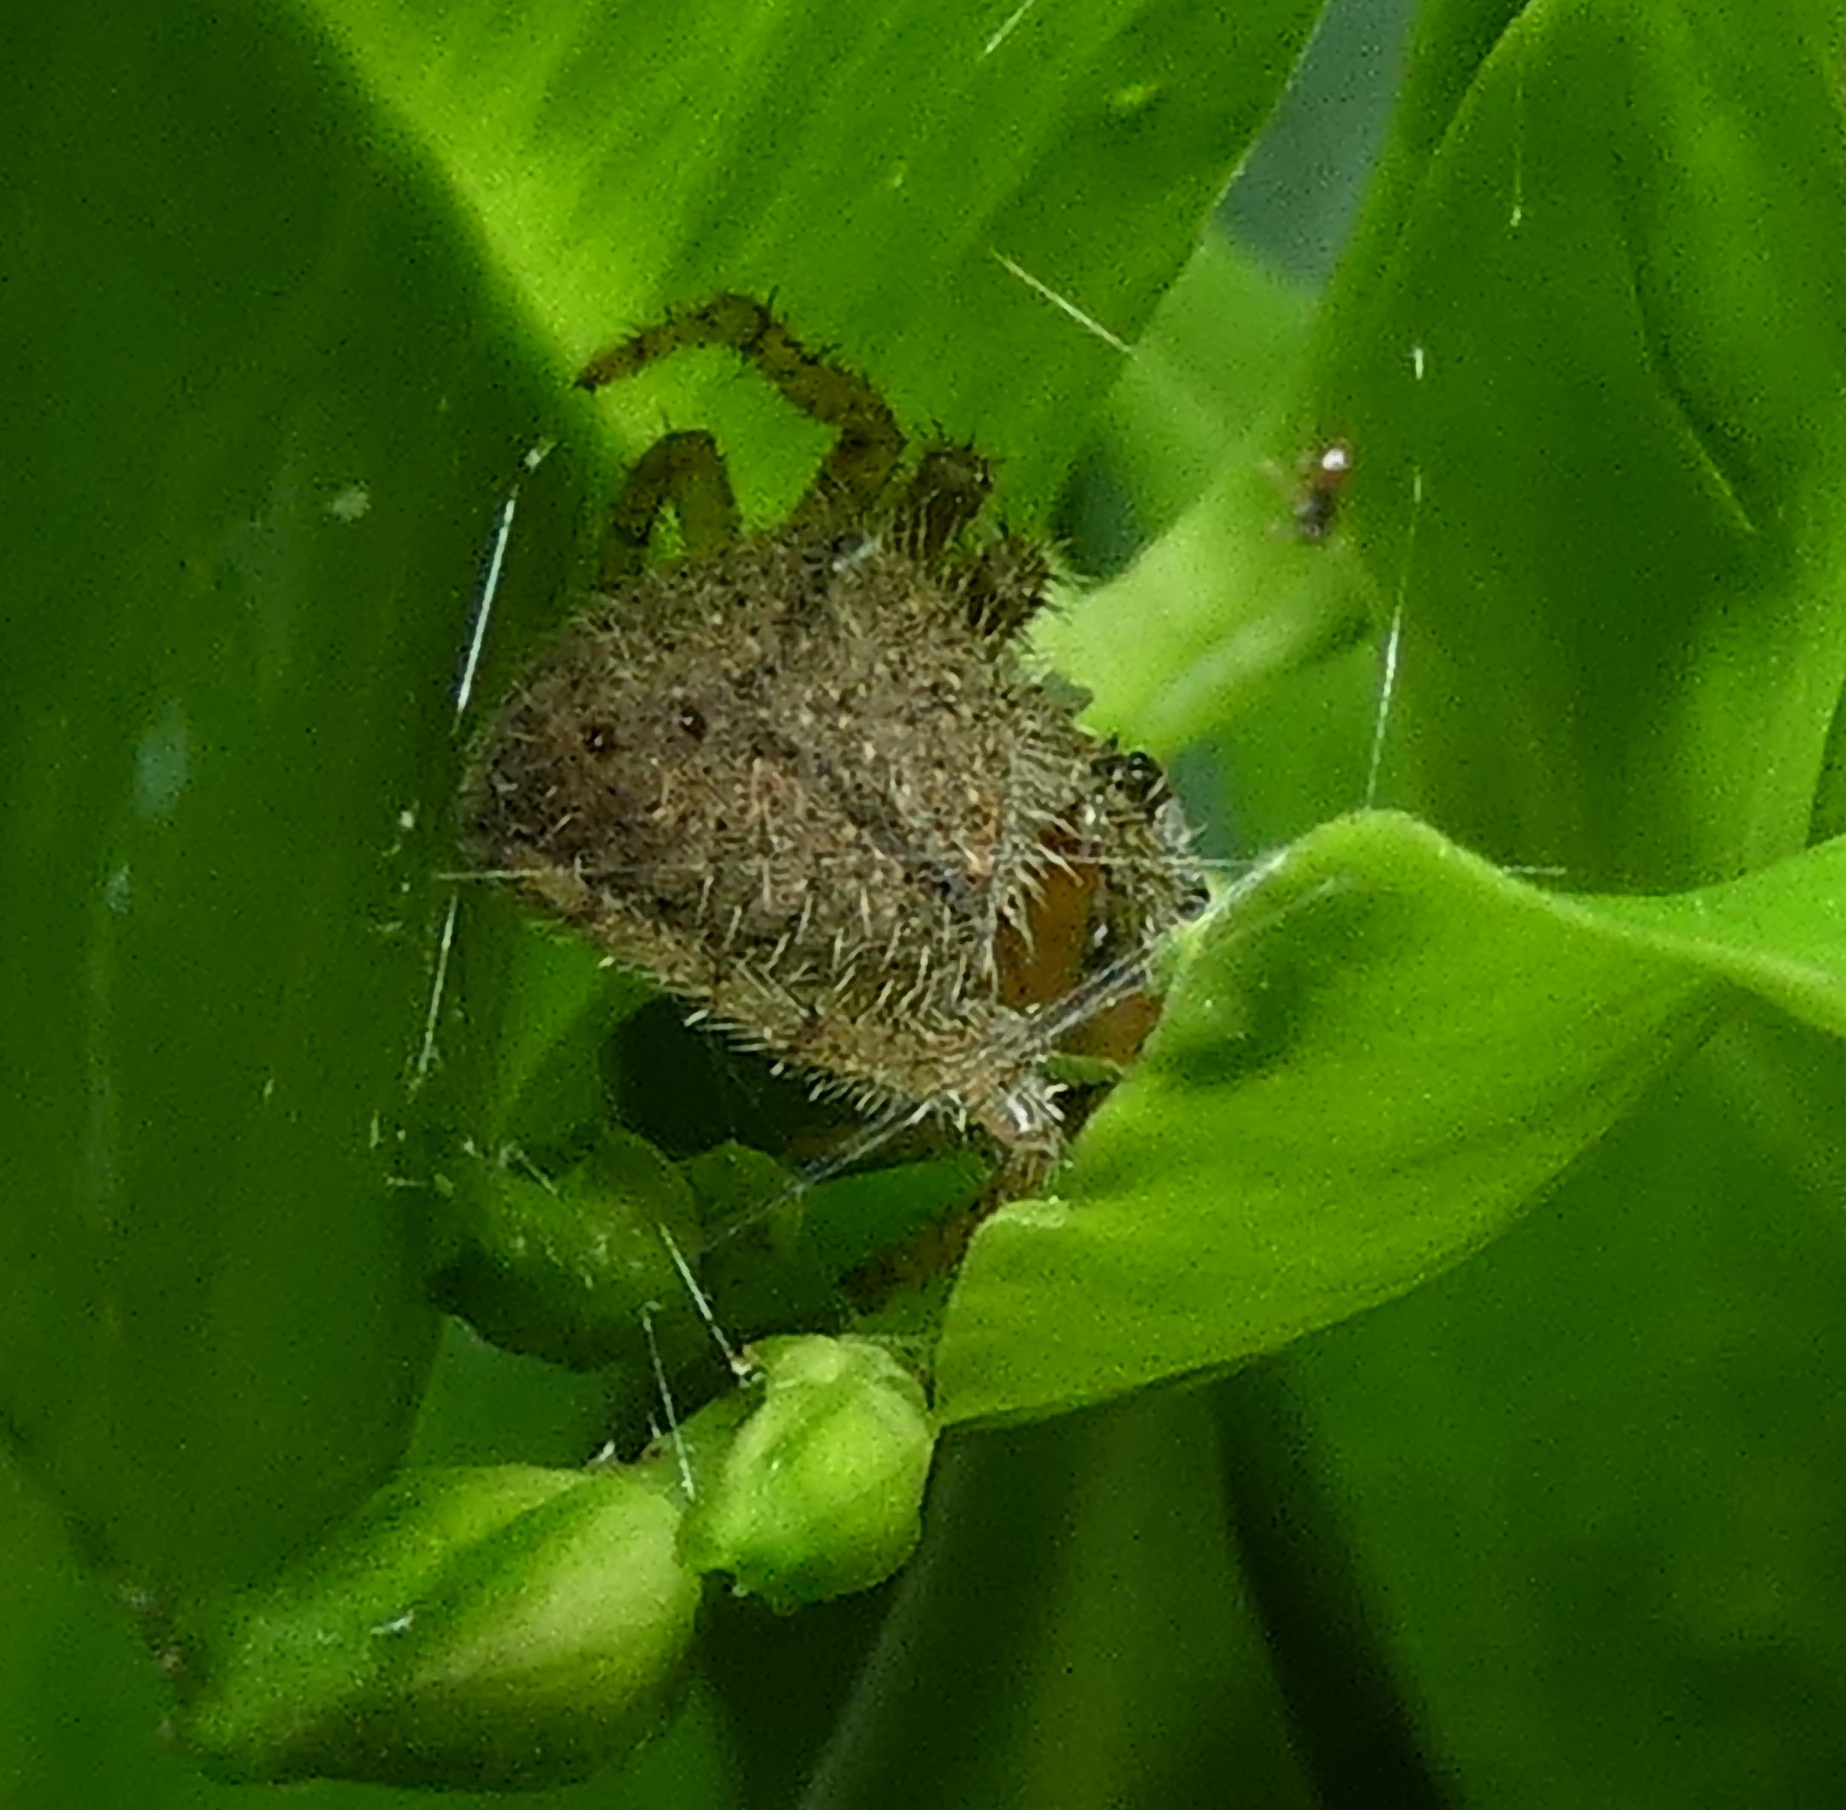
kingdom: Animalia
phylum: Arthropoda
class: Arachnida
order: Araneae
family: Araneidae
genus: Eriophora
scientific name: Eriophora edax
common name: Orb weavers
